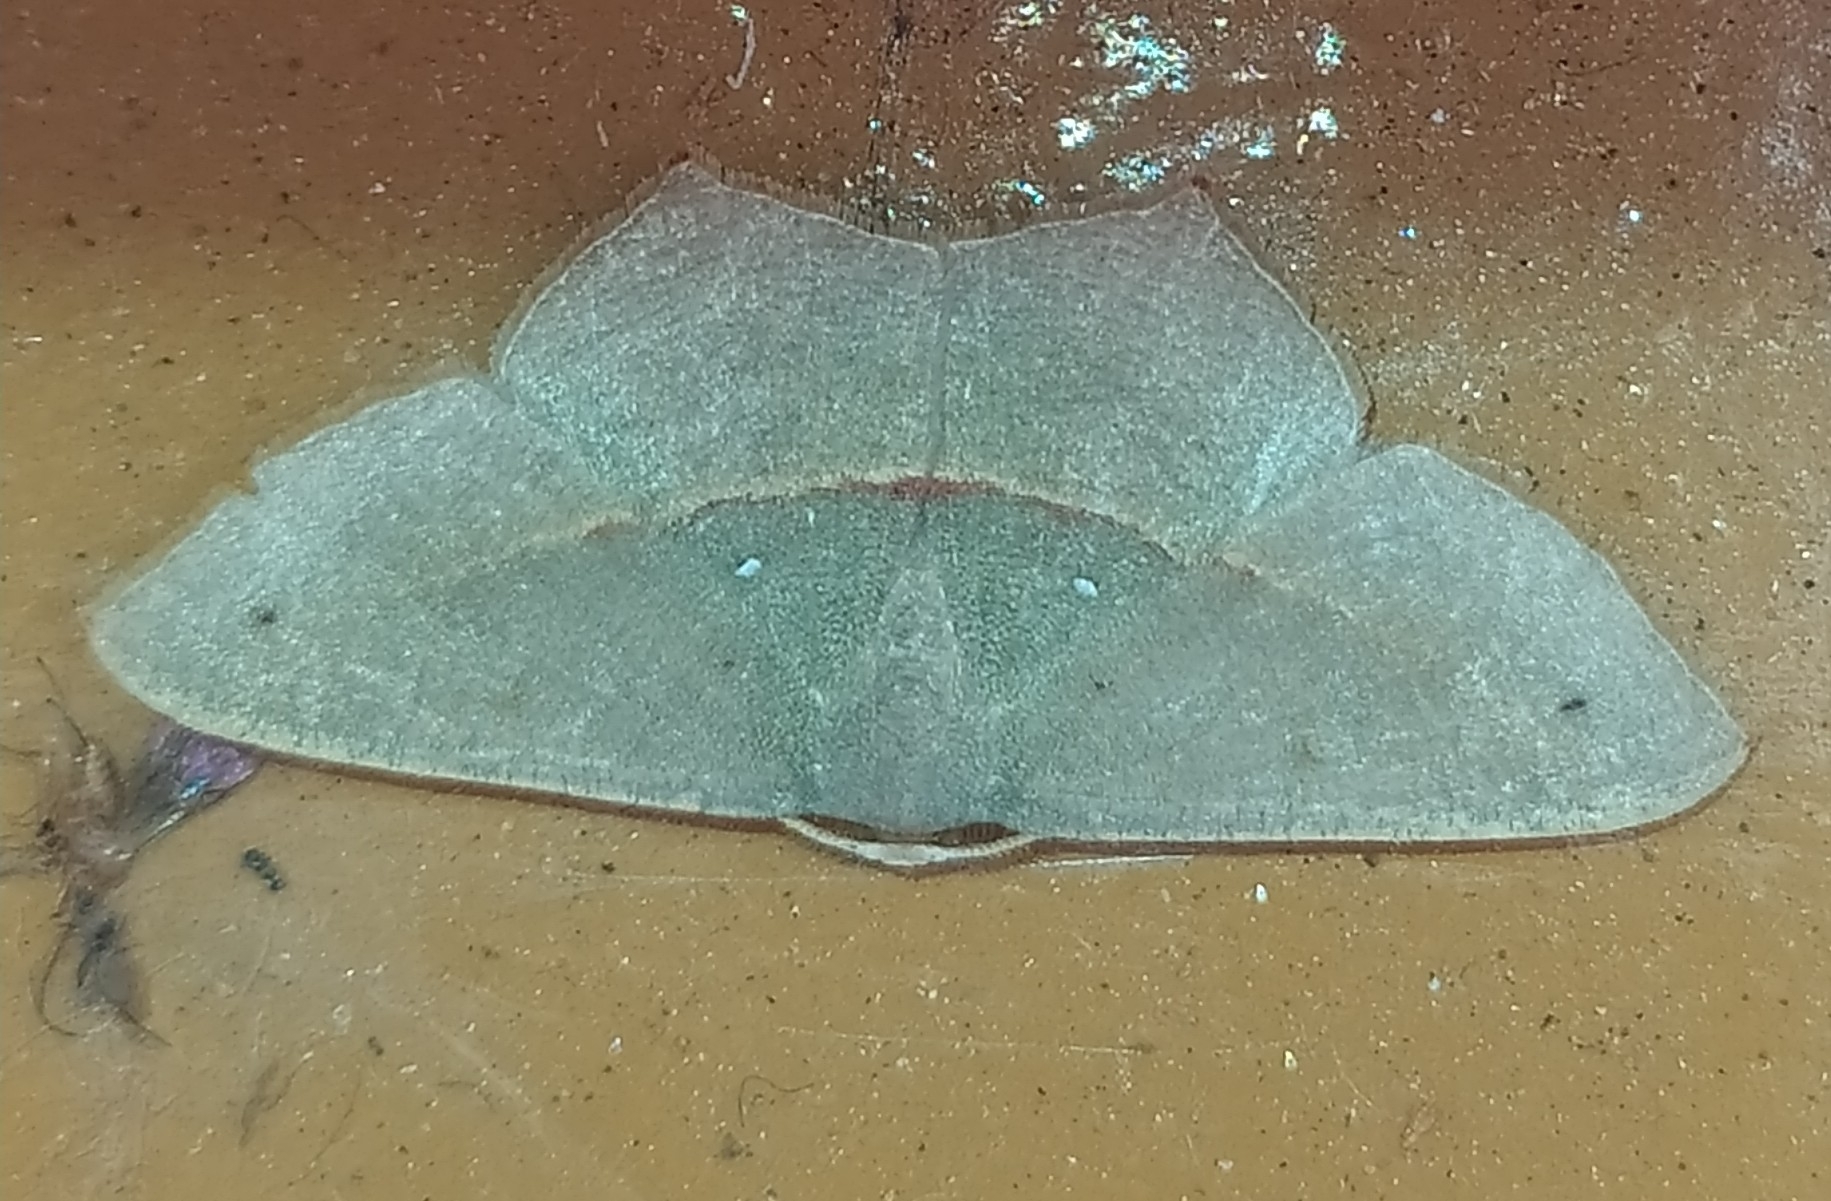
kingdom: Animalia
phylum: Arthropoda
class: Insecta
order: Lepidoptera
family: Geometridae
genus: Traminda
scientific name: Traminda mundissima
